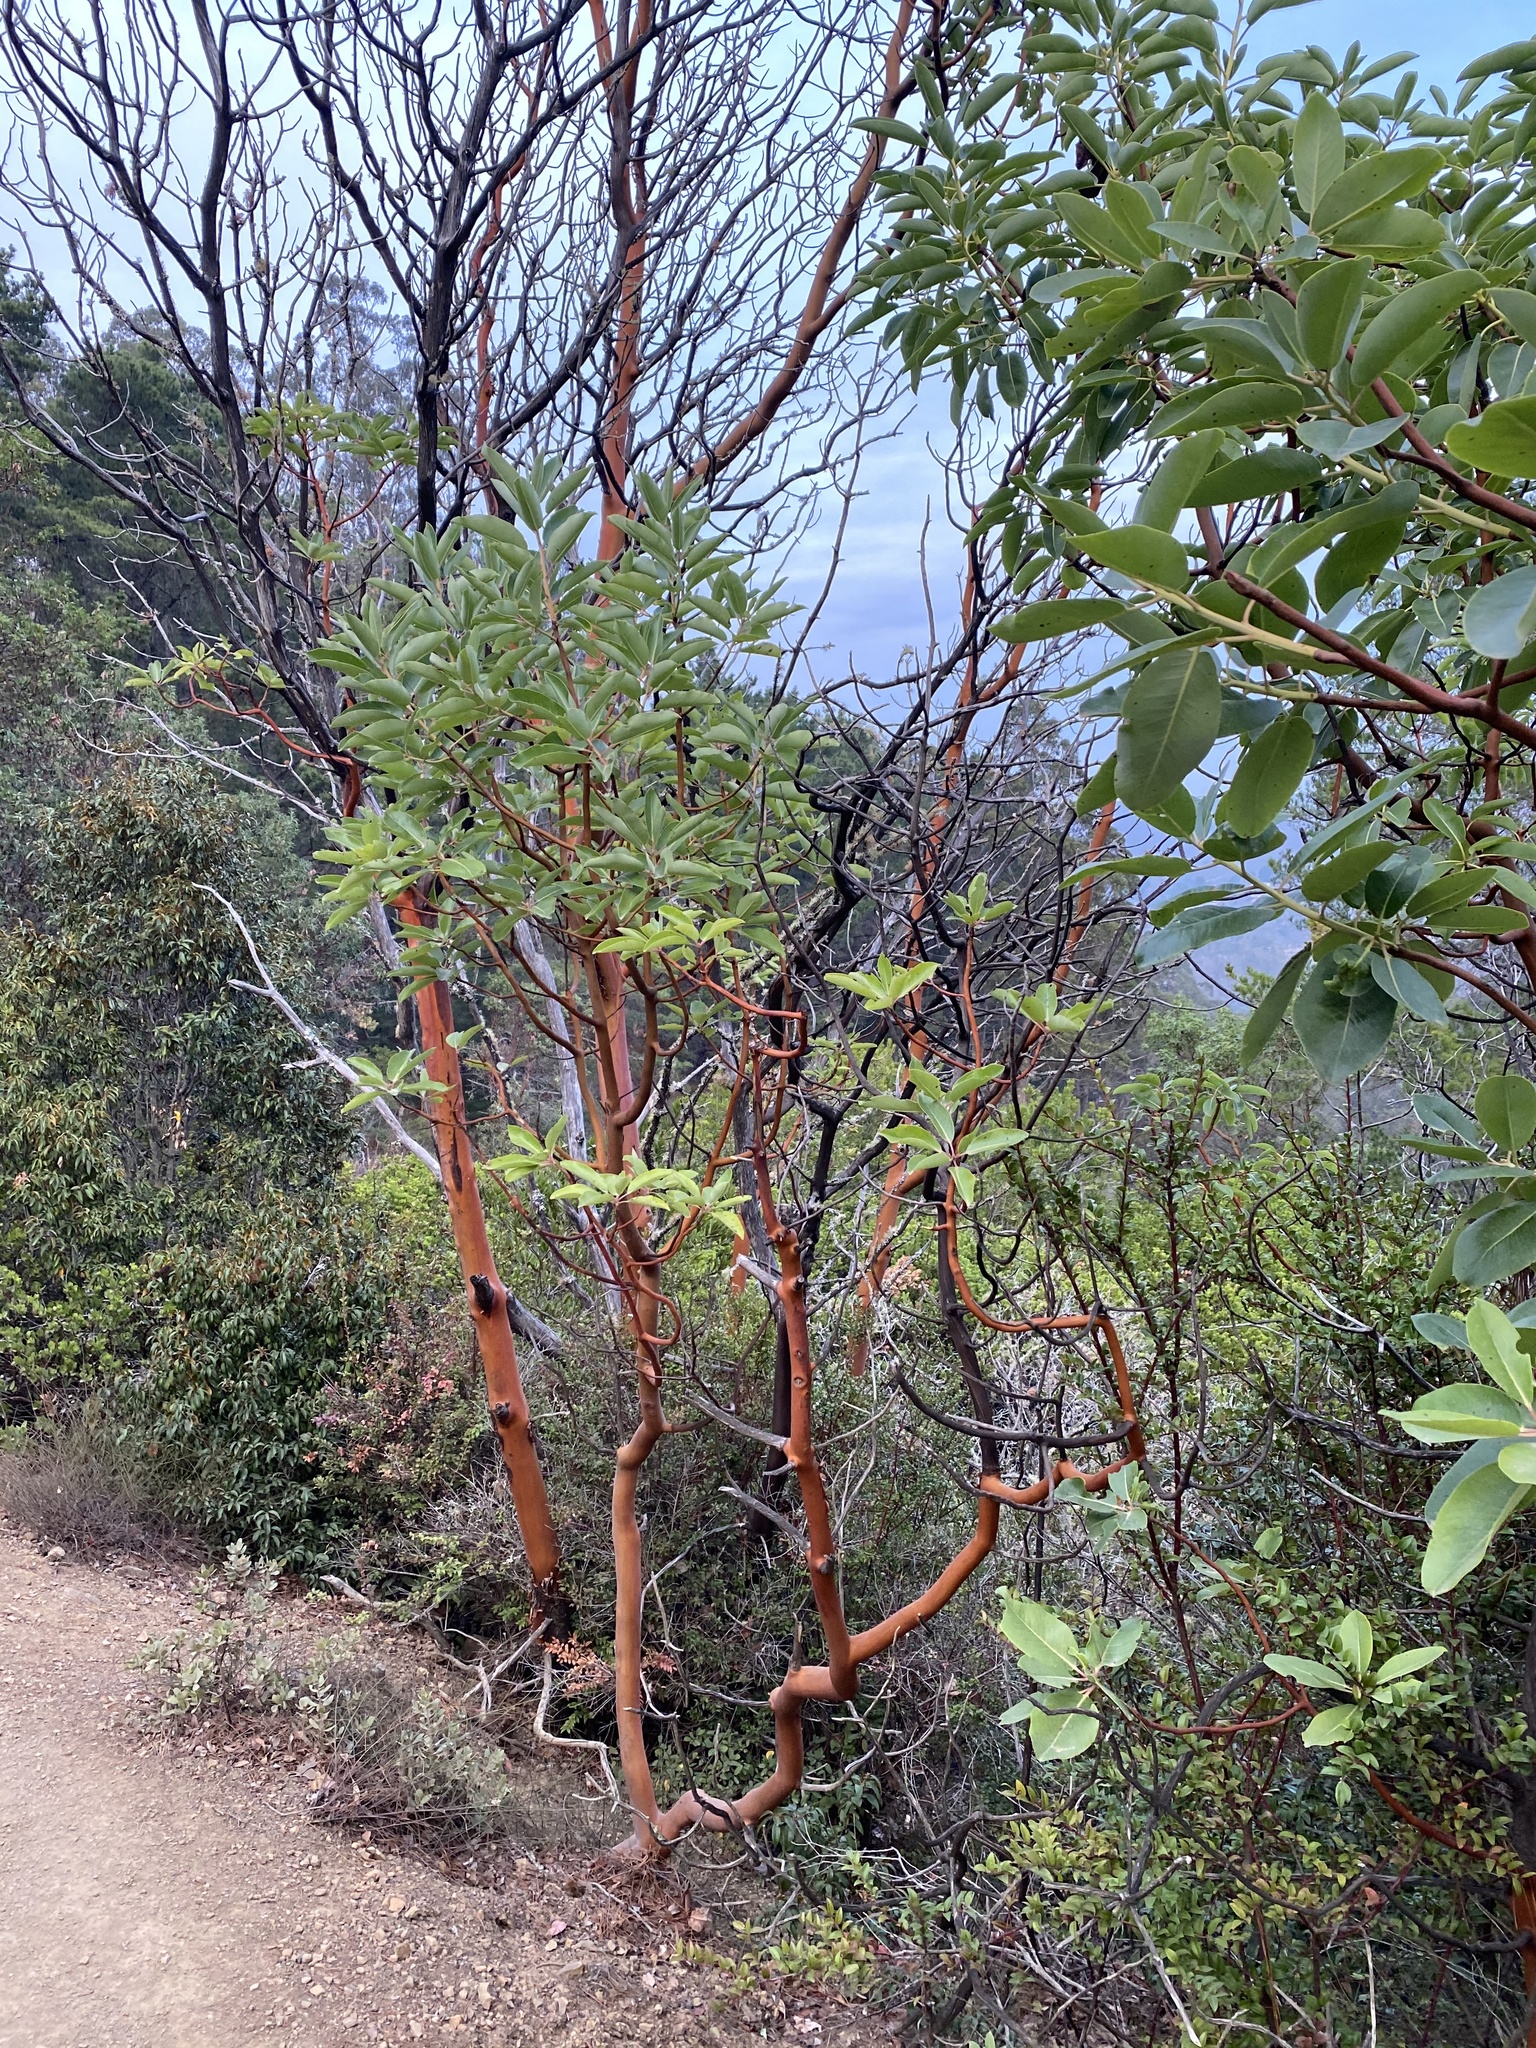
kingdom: Plantae
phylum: Tracheophyta
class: Magnoliopsida
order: Ericales
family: Ericaceae
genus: Arbutus
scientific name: Arbutus menziesii
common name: Pacific madrone
